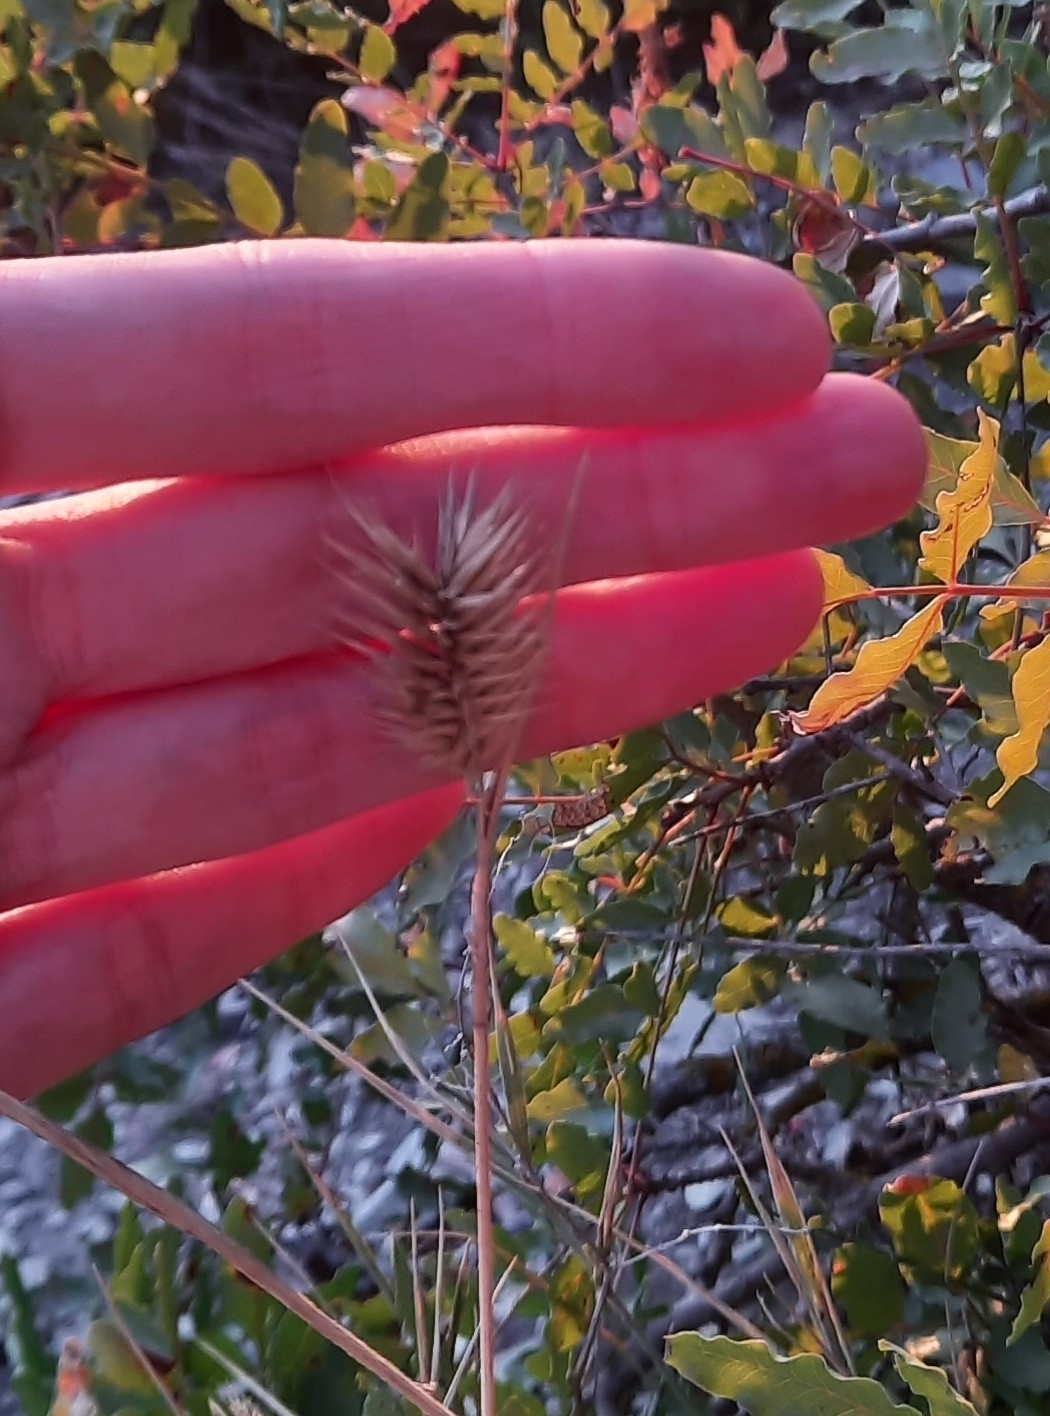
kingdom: Plantae
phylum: Tracheophyta
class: Liliopsida
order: Poales
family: Poaceae
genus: Agropyron
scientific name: Agropyron cristatum
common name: Crested wheatgrass
